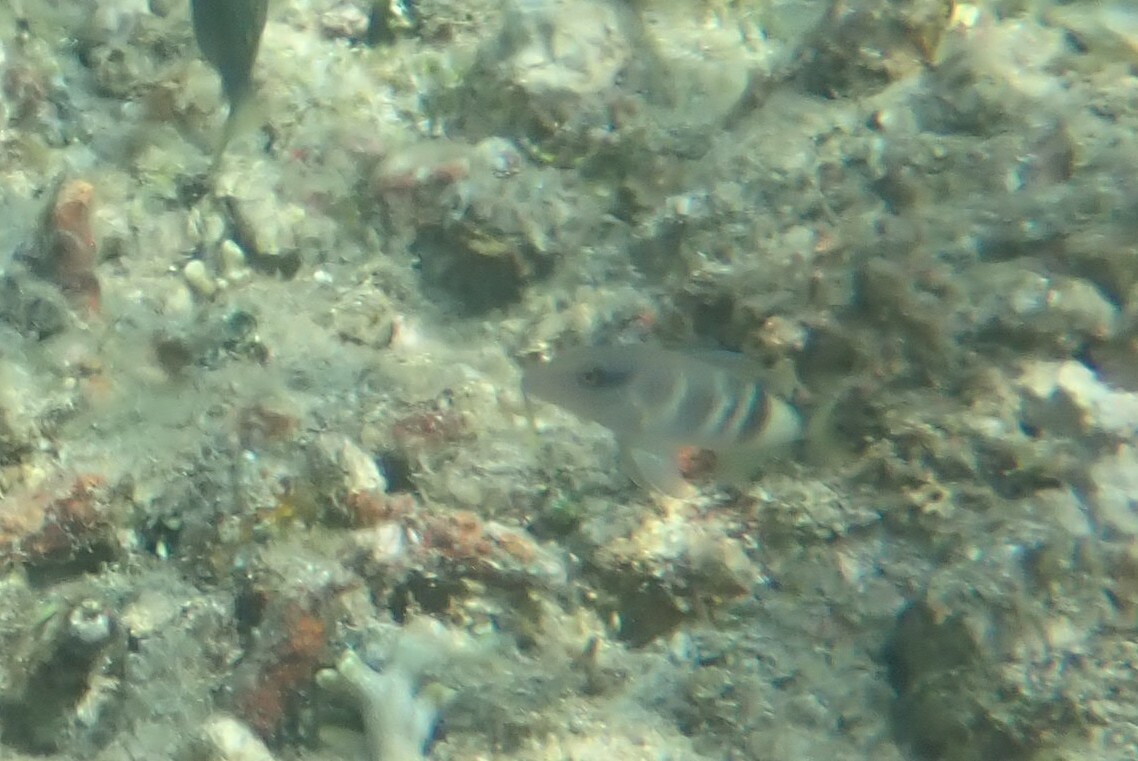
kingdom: Animalia
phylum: Chordata
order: Perciformes
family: Mullidae
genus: Parupeneus
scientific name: Parupeneus multifasciatus
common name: Manybar goatfish
